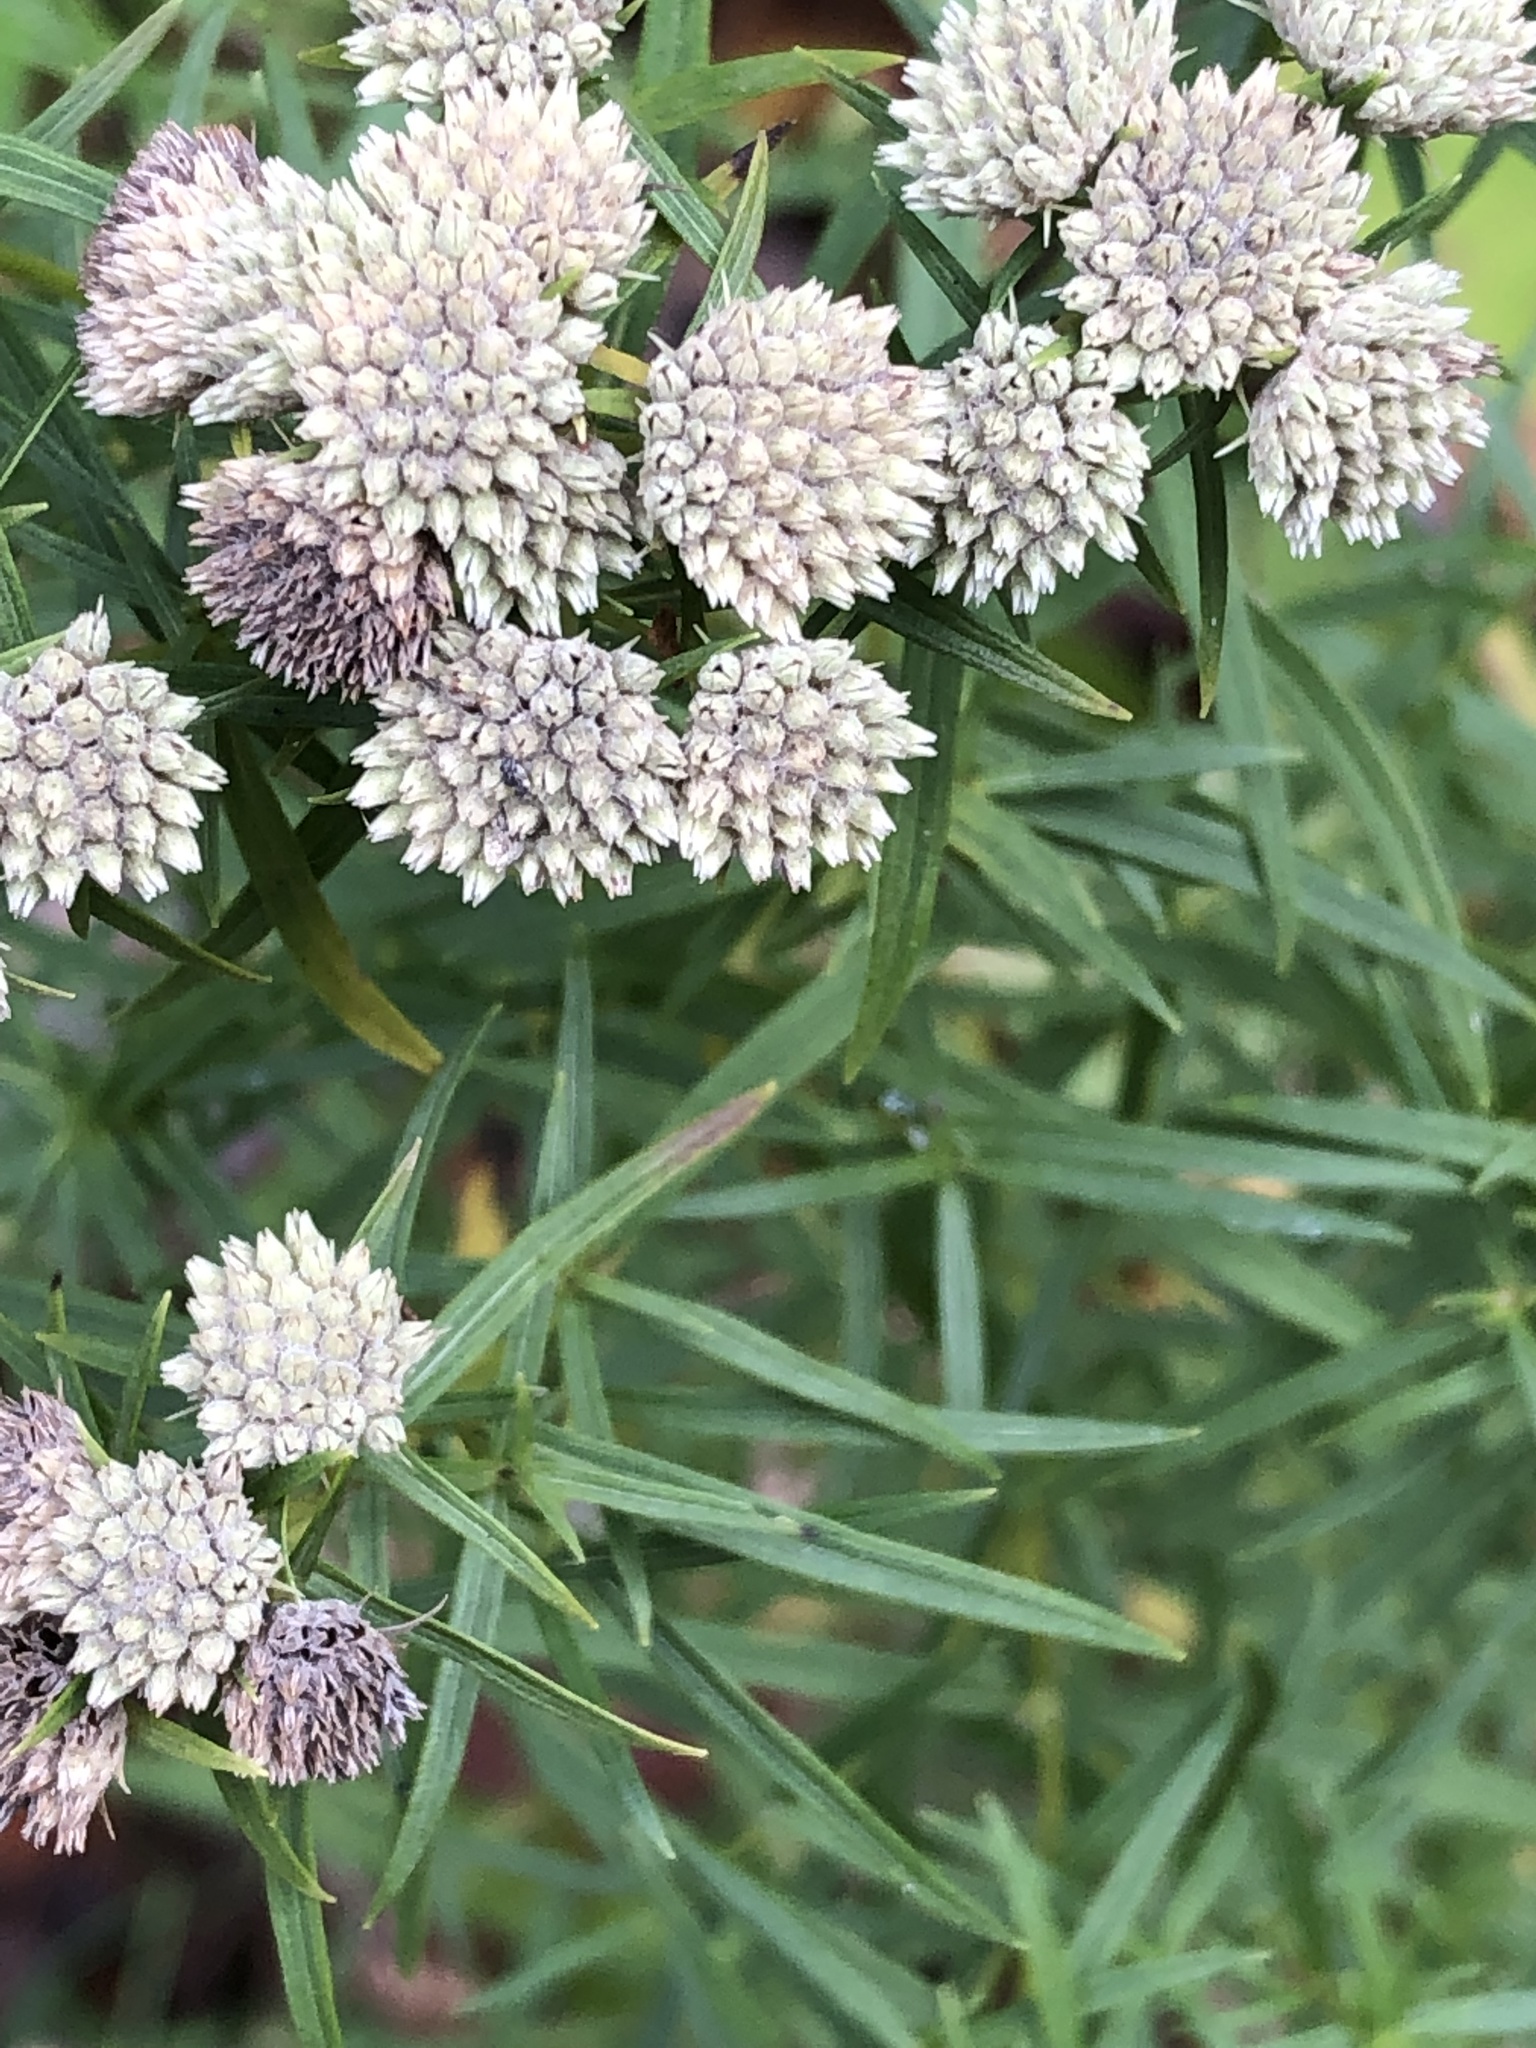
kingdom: Plantae
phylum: Tracheophyta
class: Magnoliopsida
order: Lamiales
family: Lamiaceae
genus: Pycnanthemum
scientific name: Pycnanthemum tenuifolium
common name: Narrow-leaf mountain-mint
